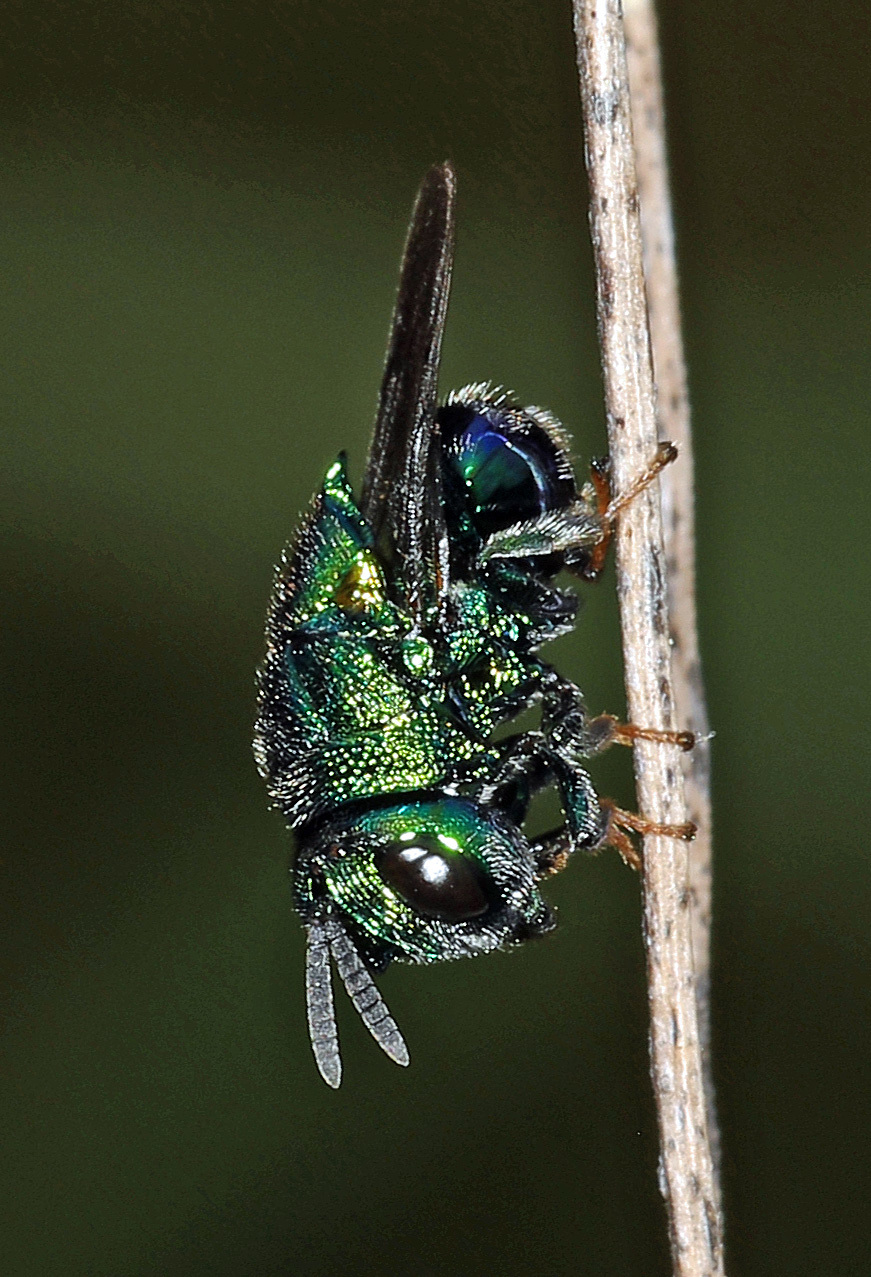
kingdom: Animalia
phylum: Arthropoda
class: Insecta
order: Hymenoptera
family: Perilampidae
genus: Euperilampus
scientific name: Euperilampus triangularis
